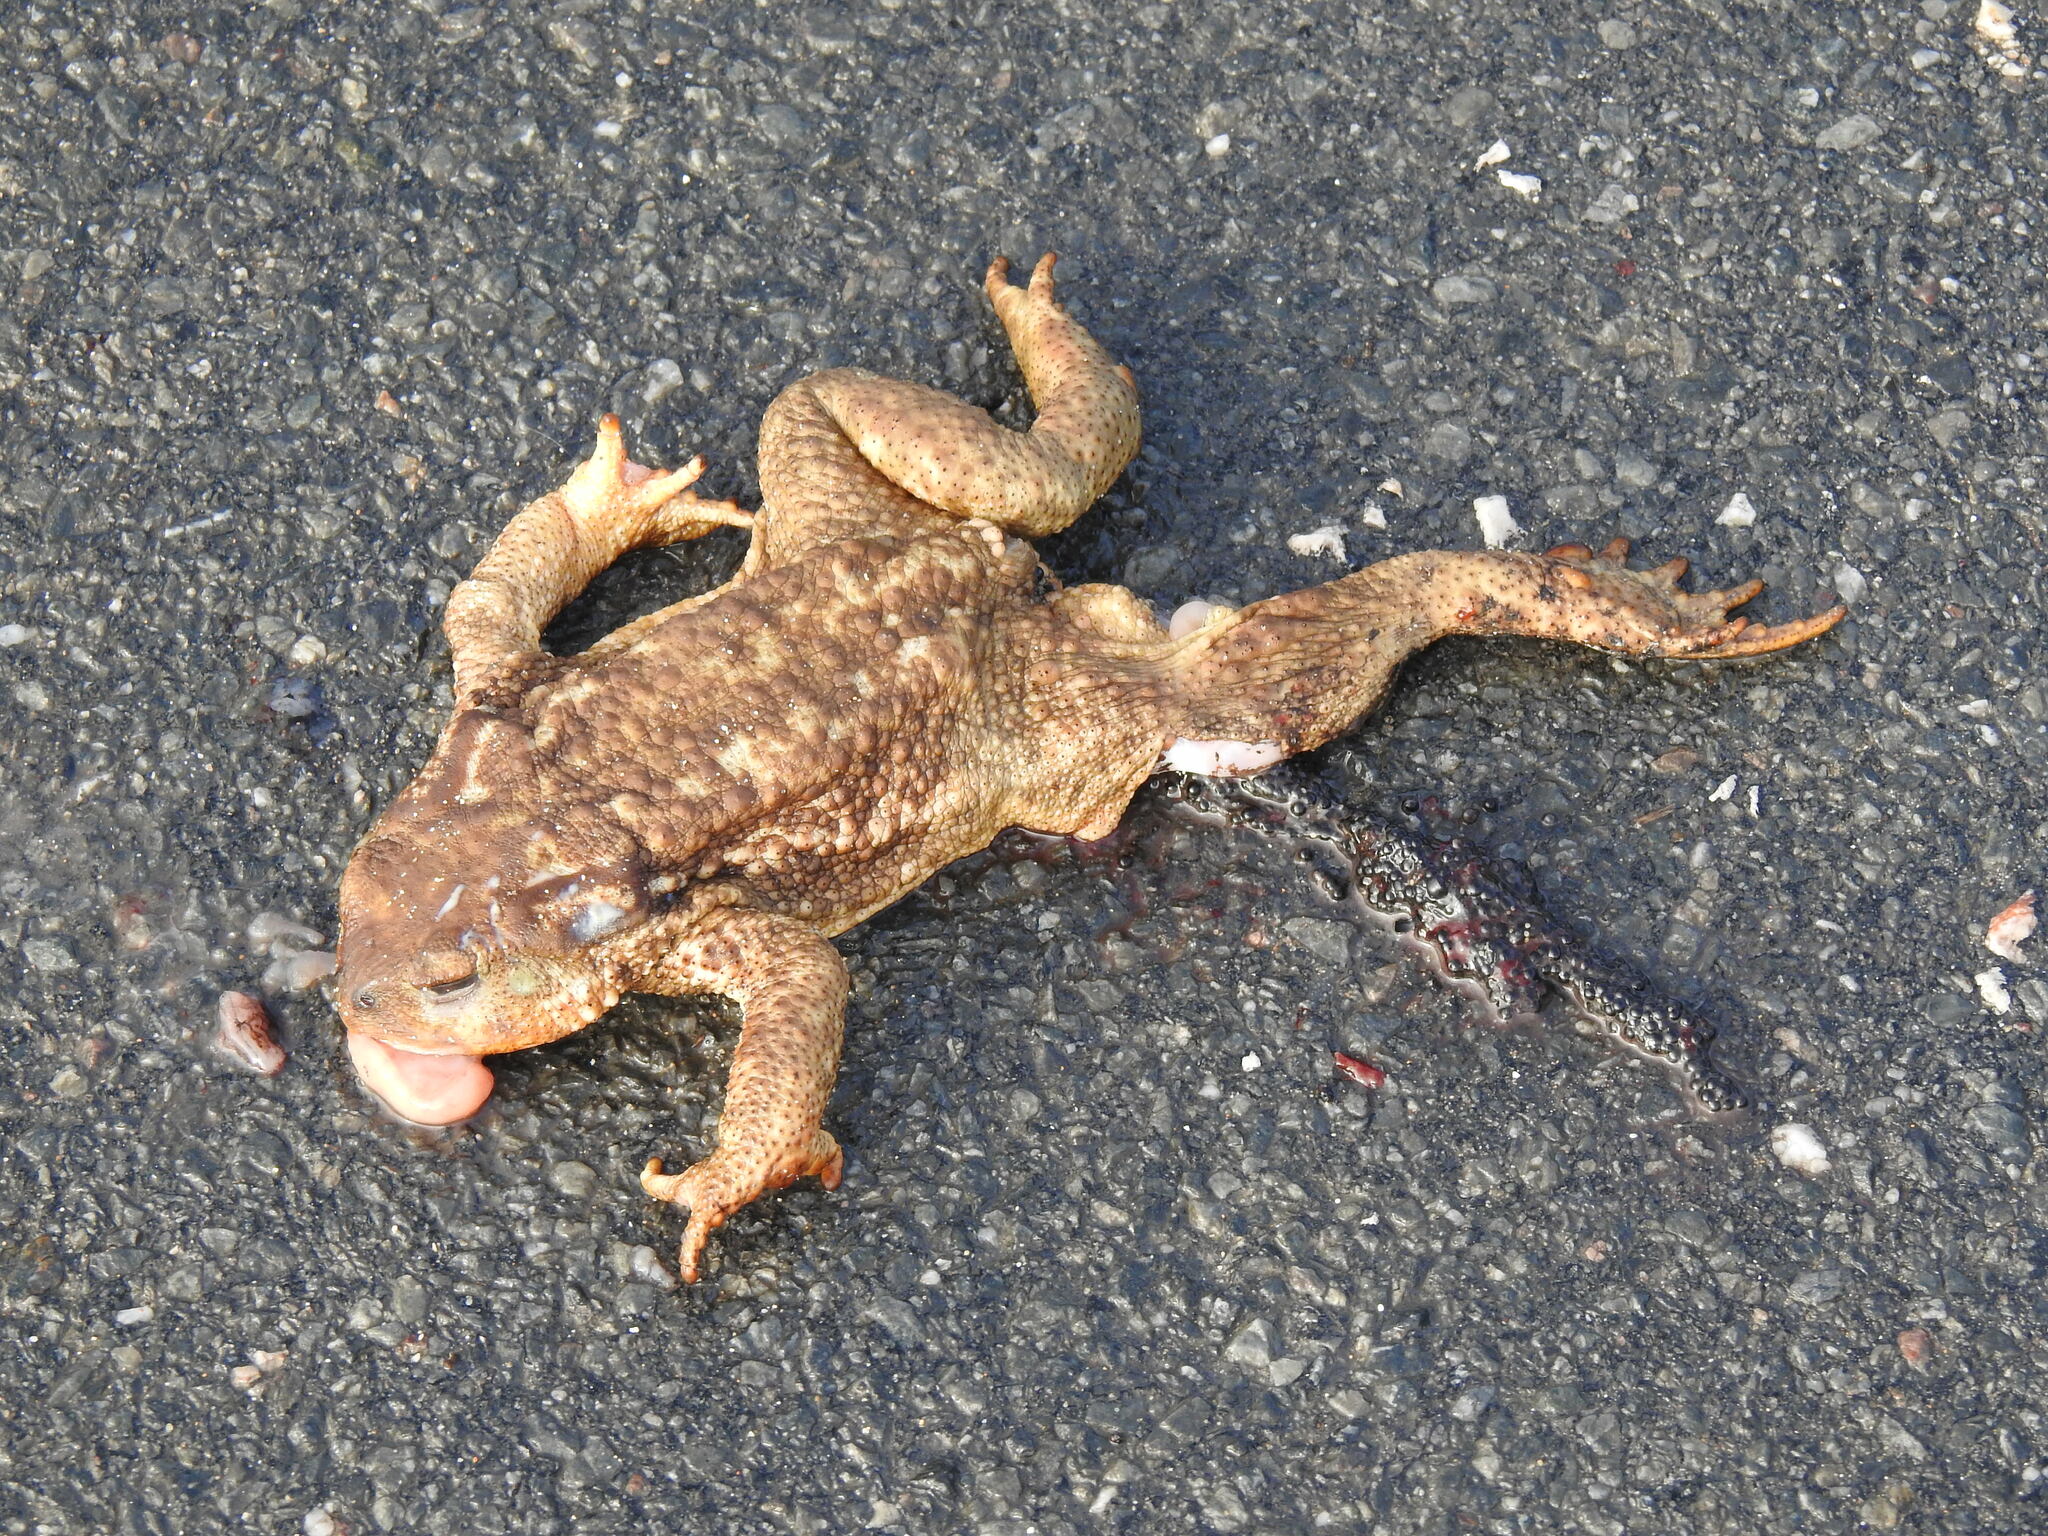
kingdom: Animalia
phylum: Chordata
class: Amphibia
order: Anura
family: Bufonidae
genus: Bufo
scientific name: Bufo spinosus
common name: Western common toad
